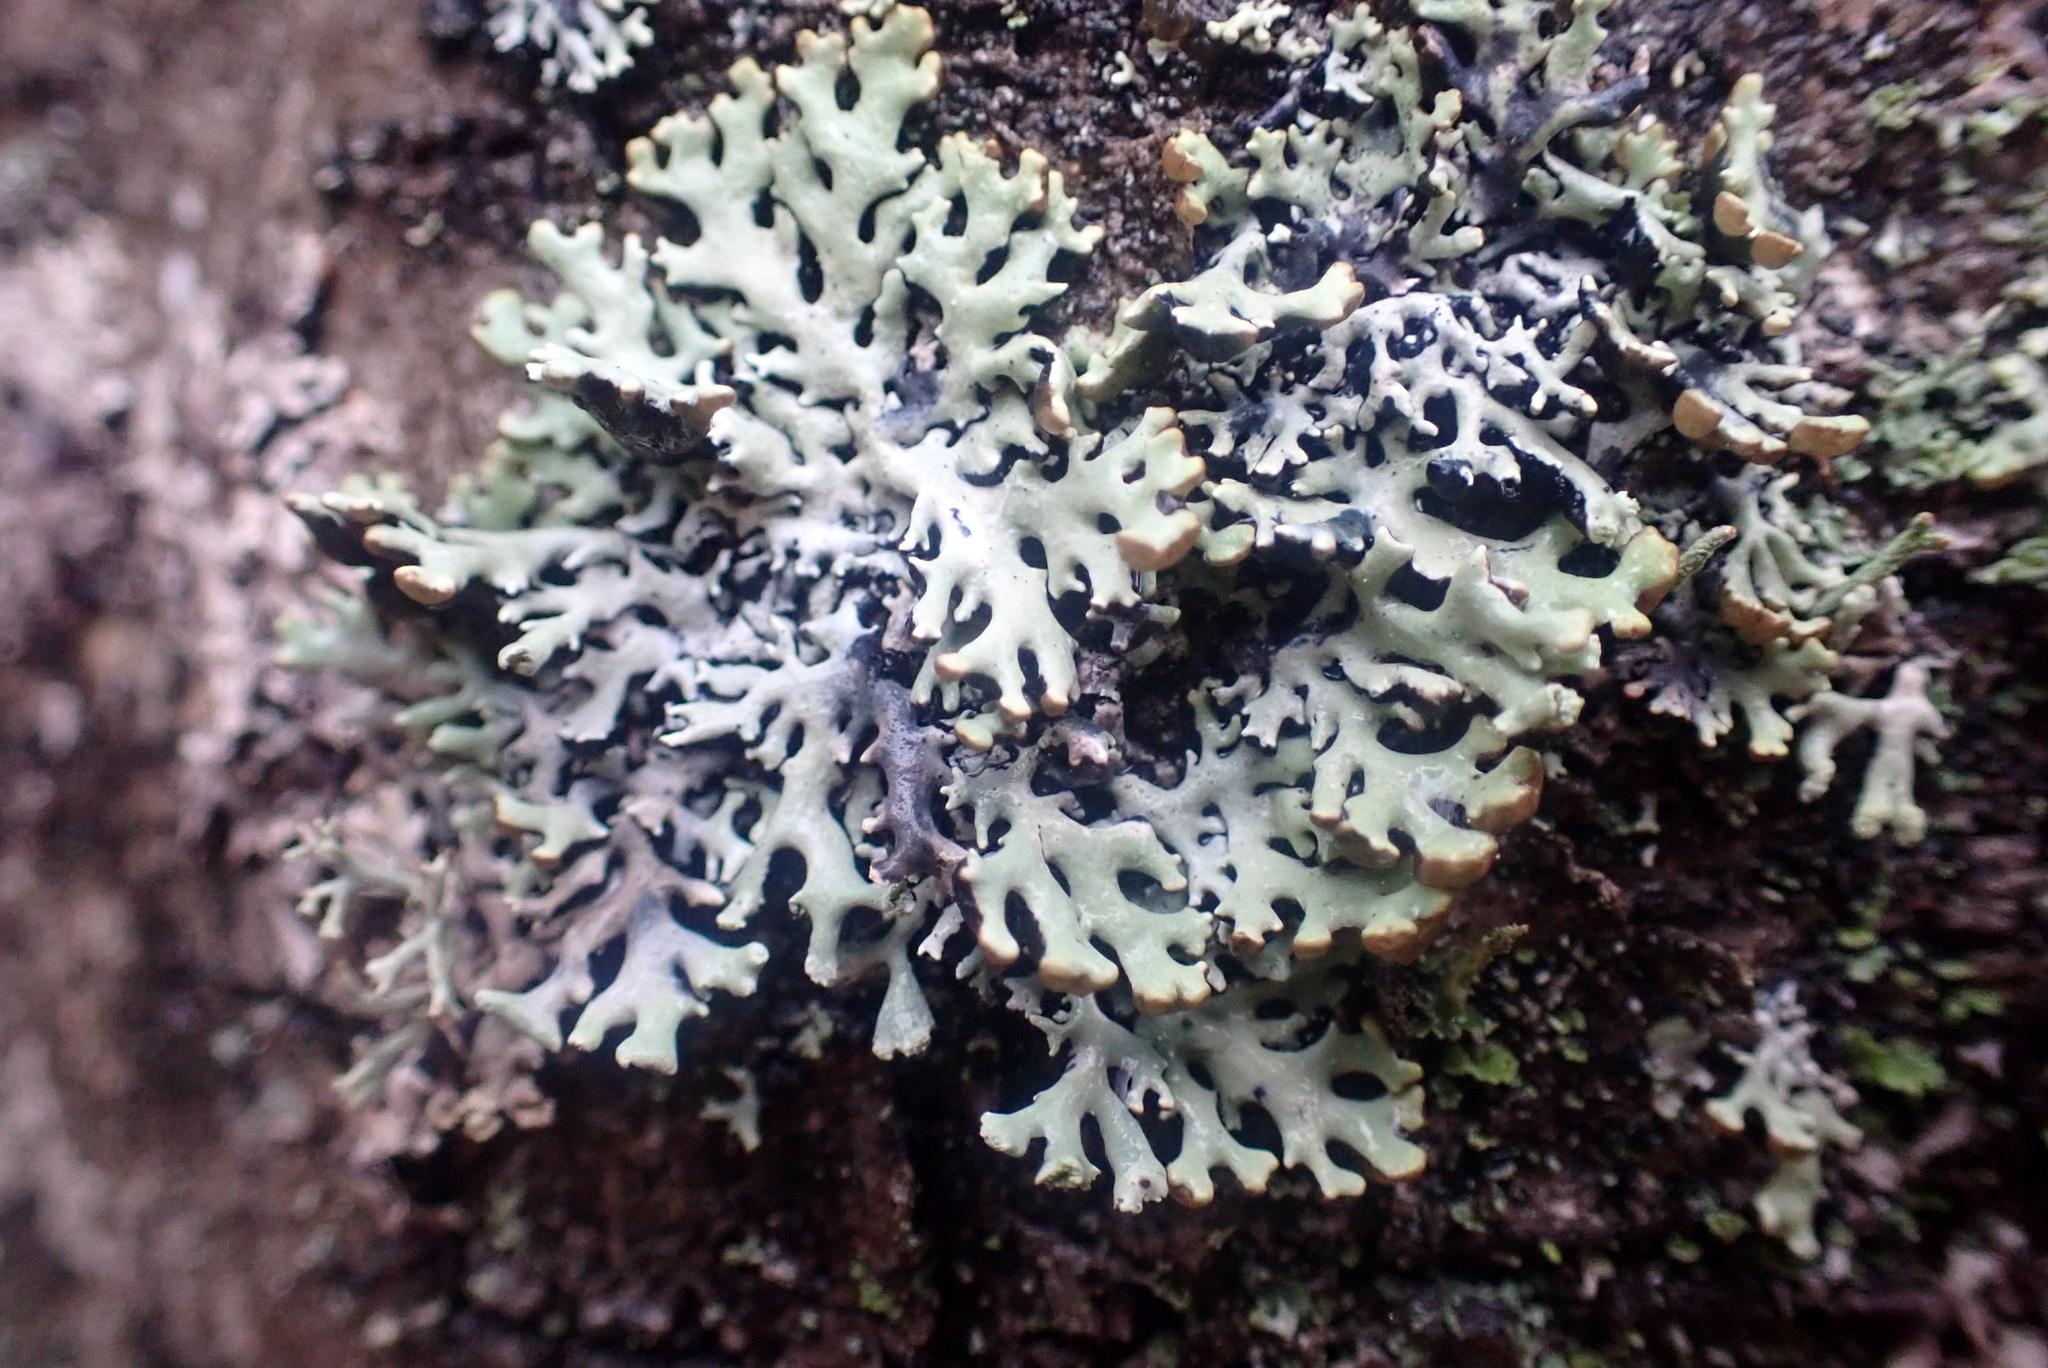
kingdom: Fungi
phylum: Ascomycota
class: Lecanoromycetes
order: Lecanorales
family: Parmeliaceae
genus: Hypogymnia
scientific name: Hypogymnia physodes
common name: Dark crottle
